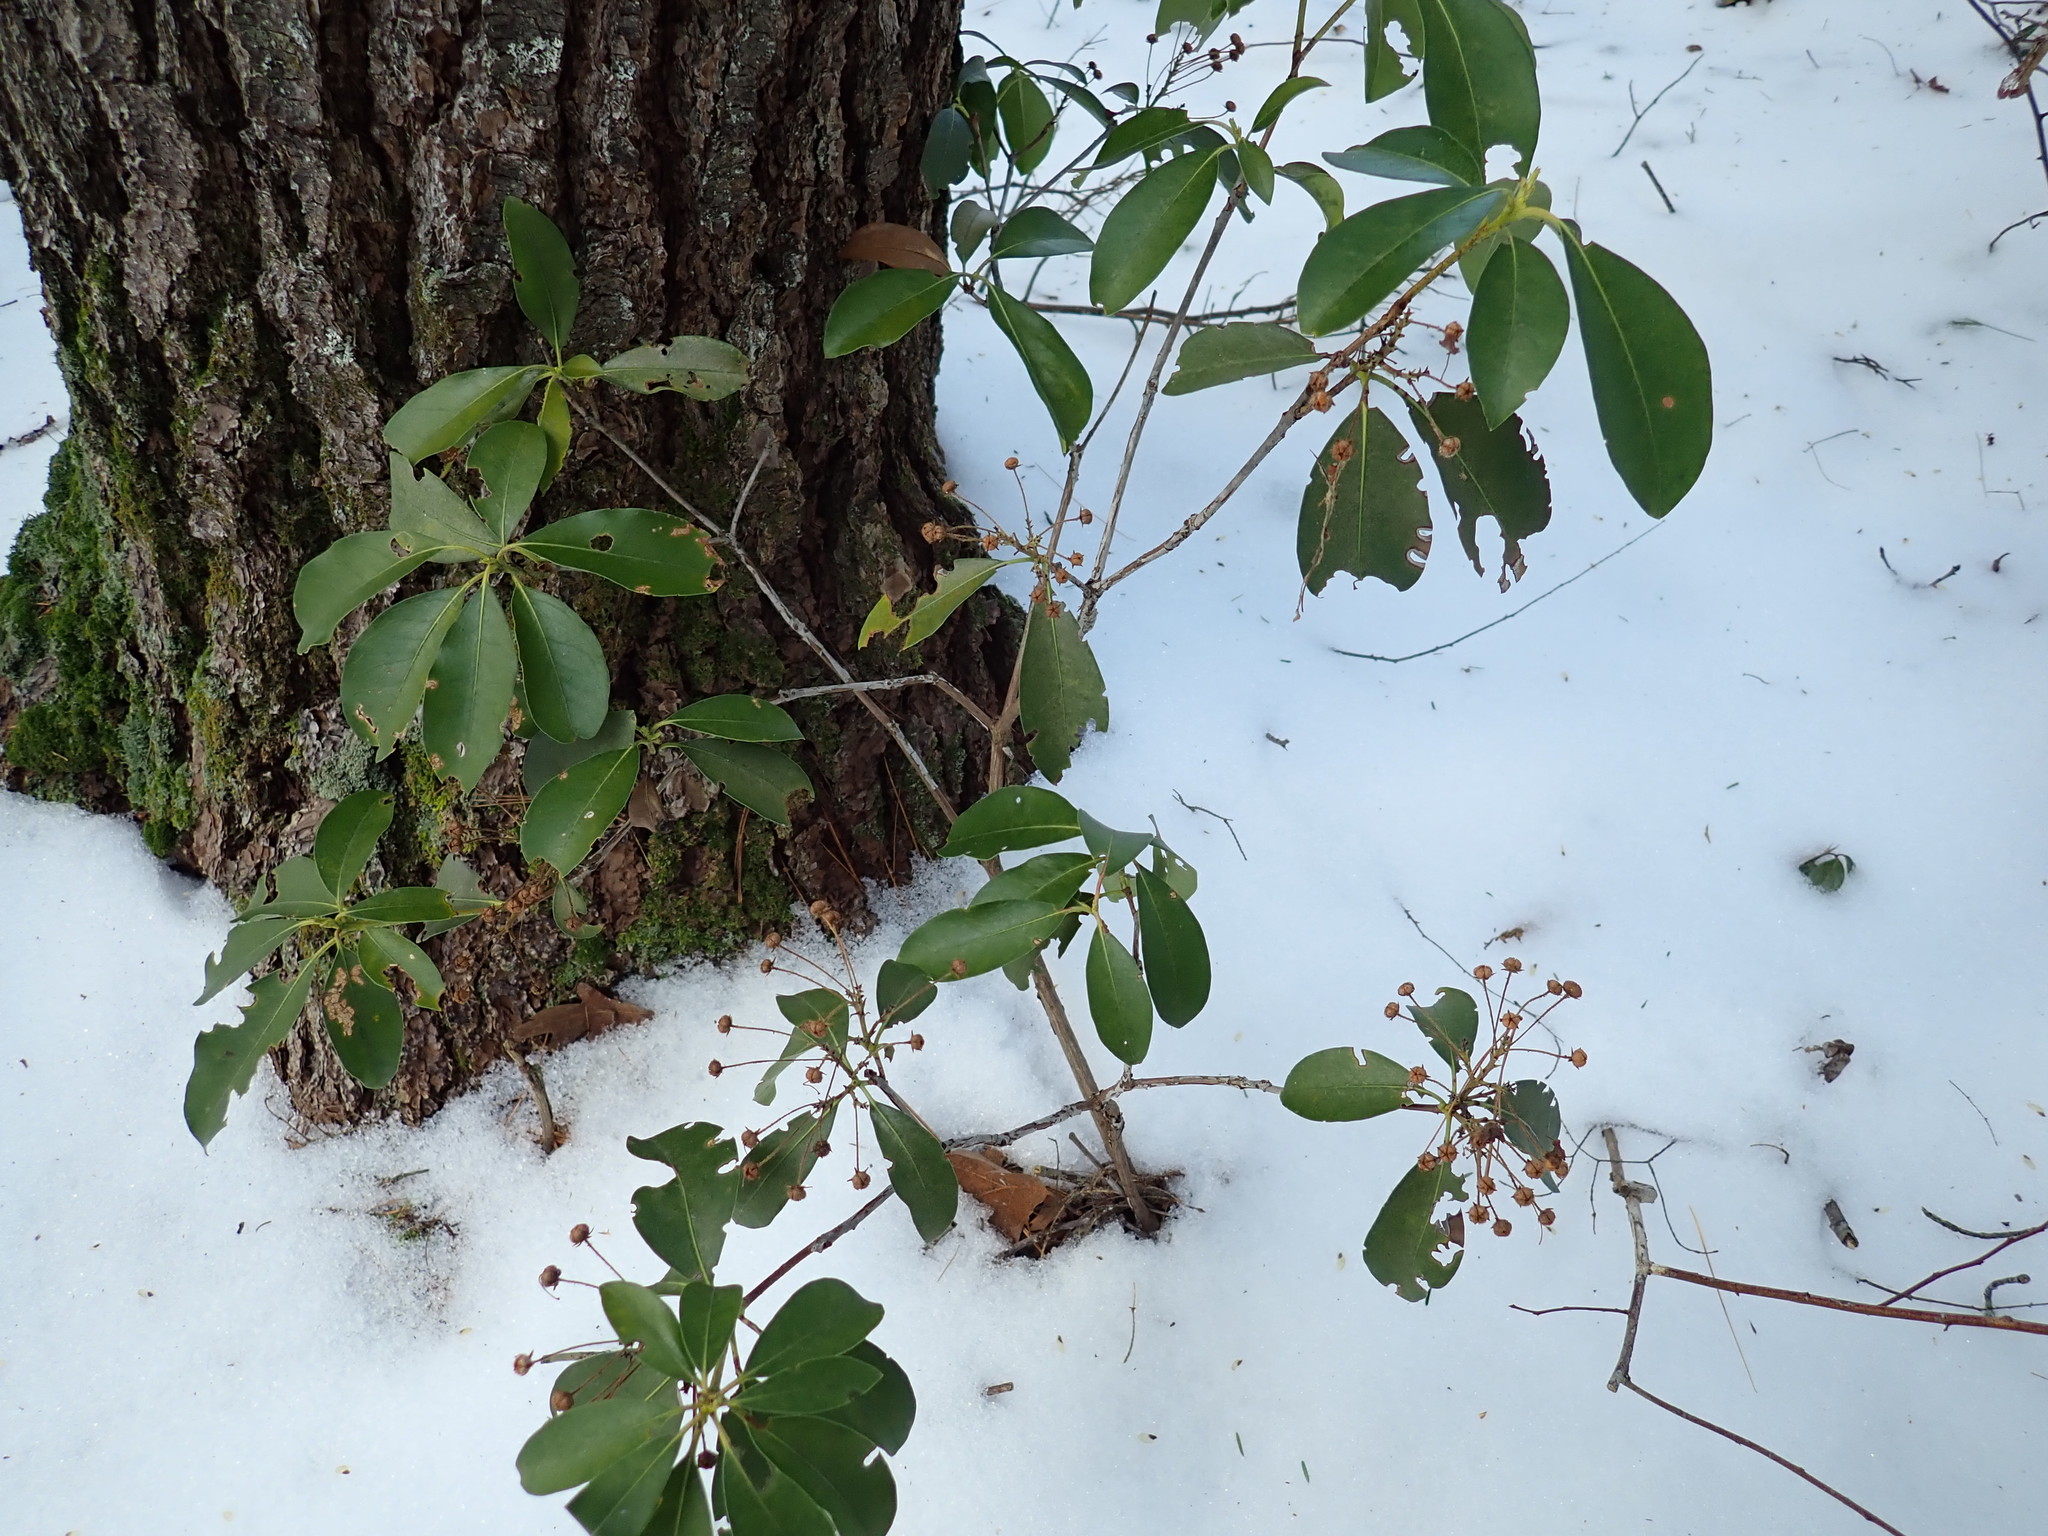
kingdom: Plantae
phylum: Tracheophyta
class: Magnoliopsida
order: Ericales
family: Ericaceae
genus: Kalmia
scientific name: Kalmia latifolia
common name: Mountain-laurel
